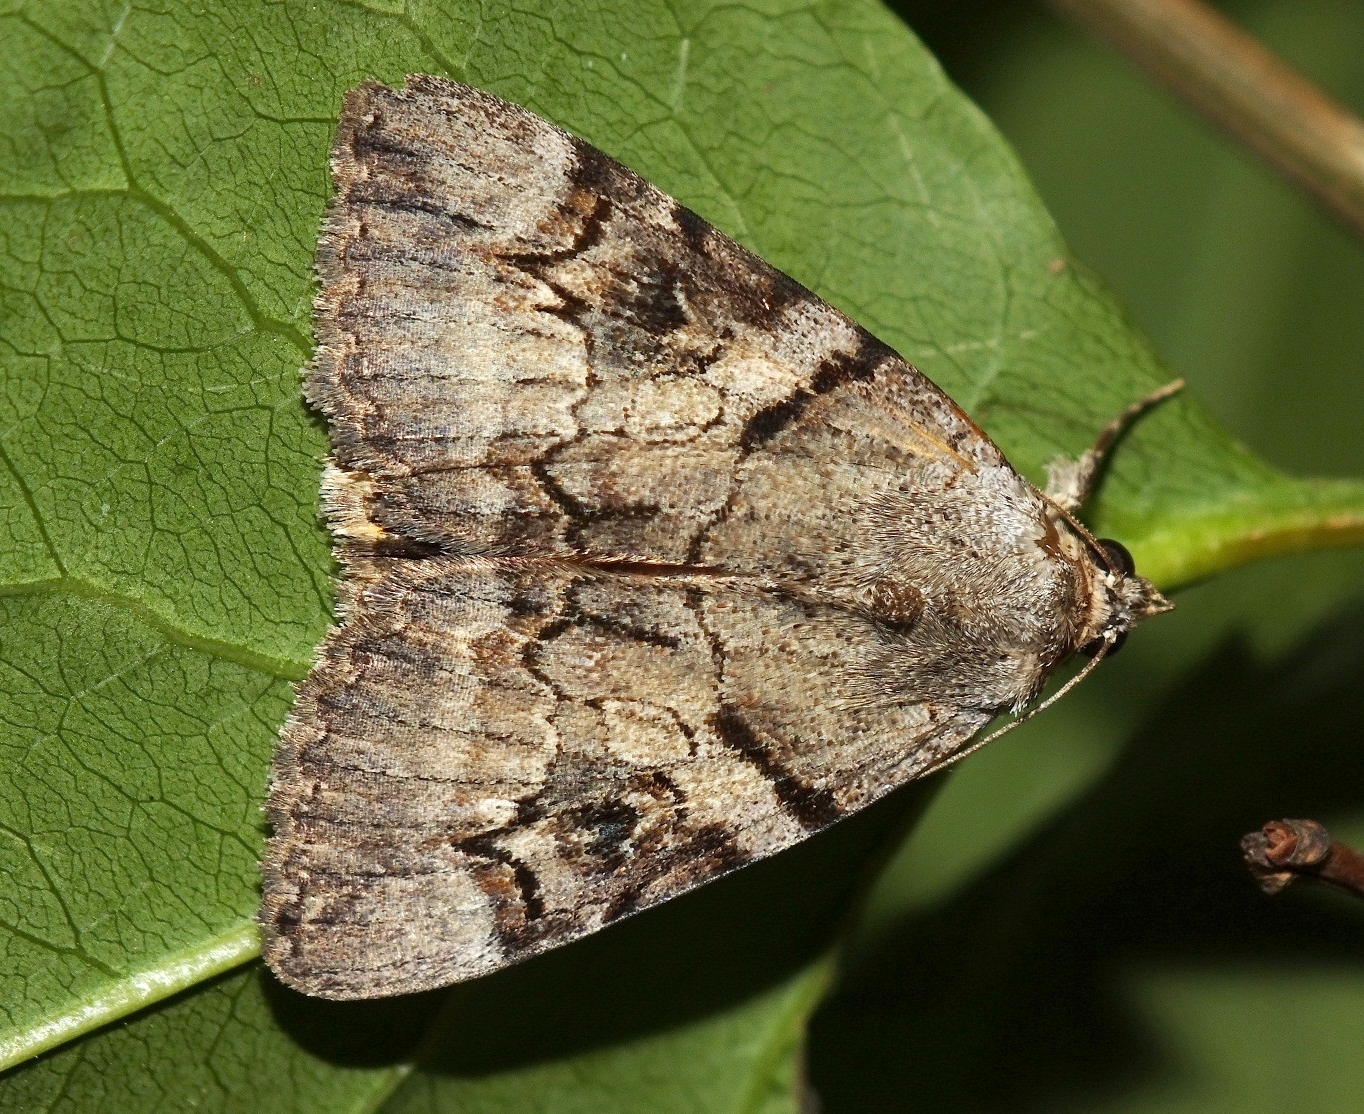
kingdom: Animalia
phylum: Arthropoda
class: Insecta
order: Lepidoptera
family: Erebidae
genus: Catocala
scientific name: Catocala hymenaea
